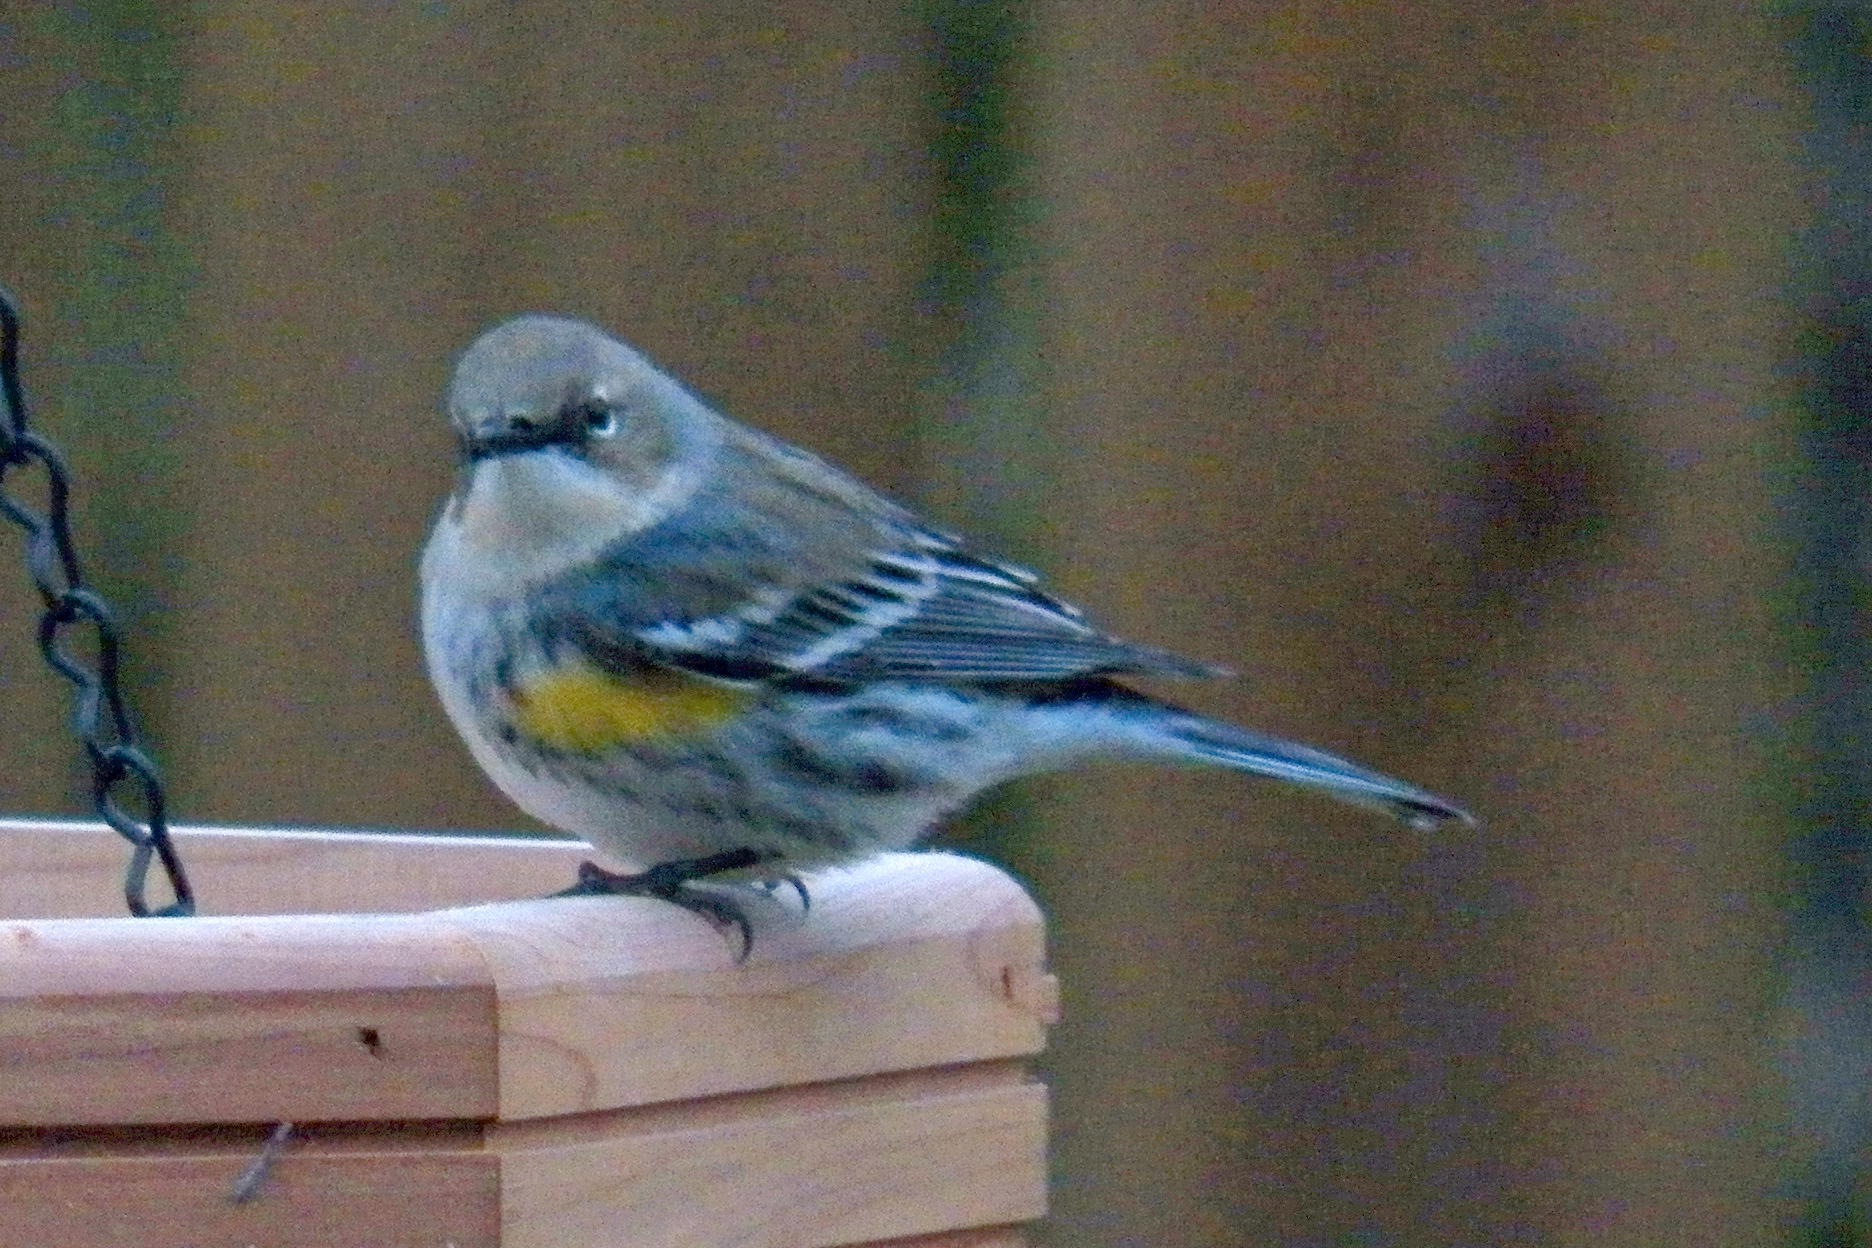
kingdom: Animalia
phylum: Chordata
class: Aves
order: Passeriformes
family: Parulidae
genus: Setophaga
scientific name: Setophaga coronata
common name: Myrtle warbler
